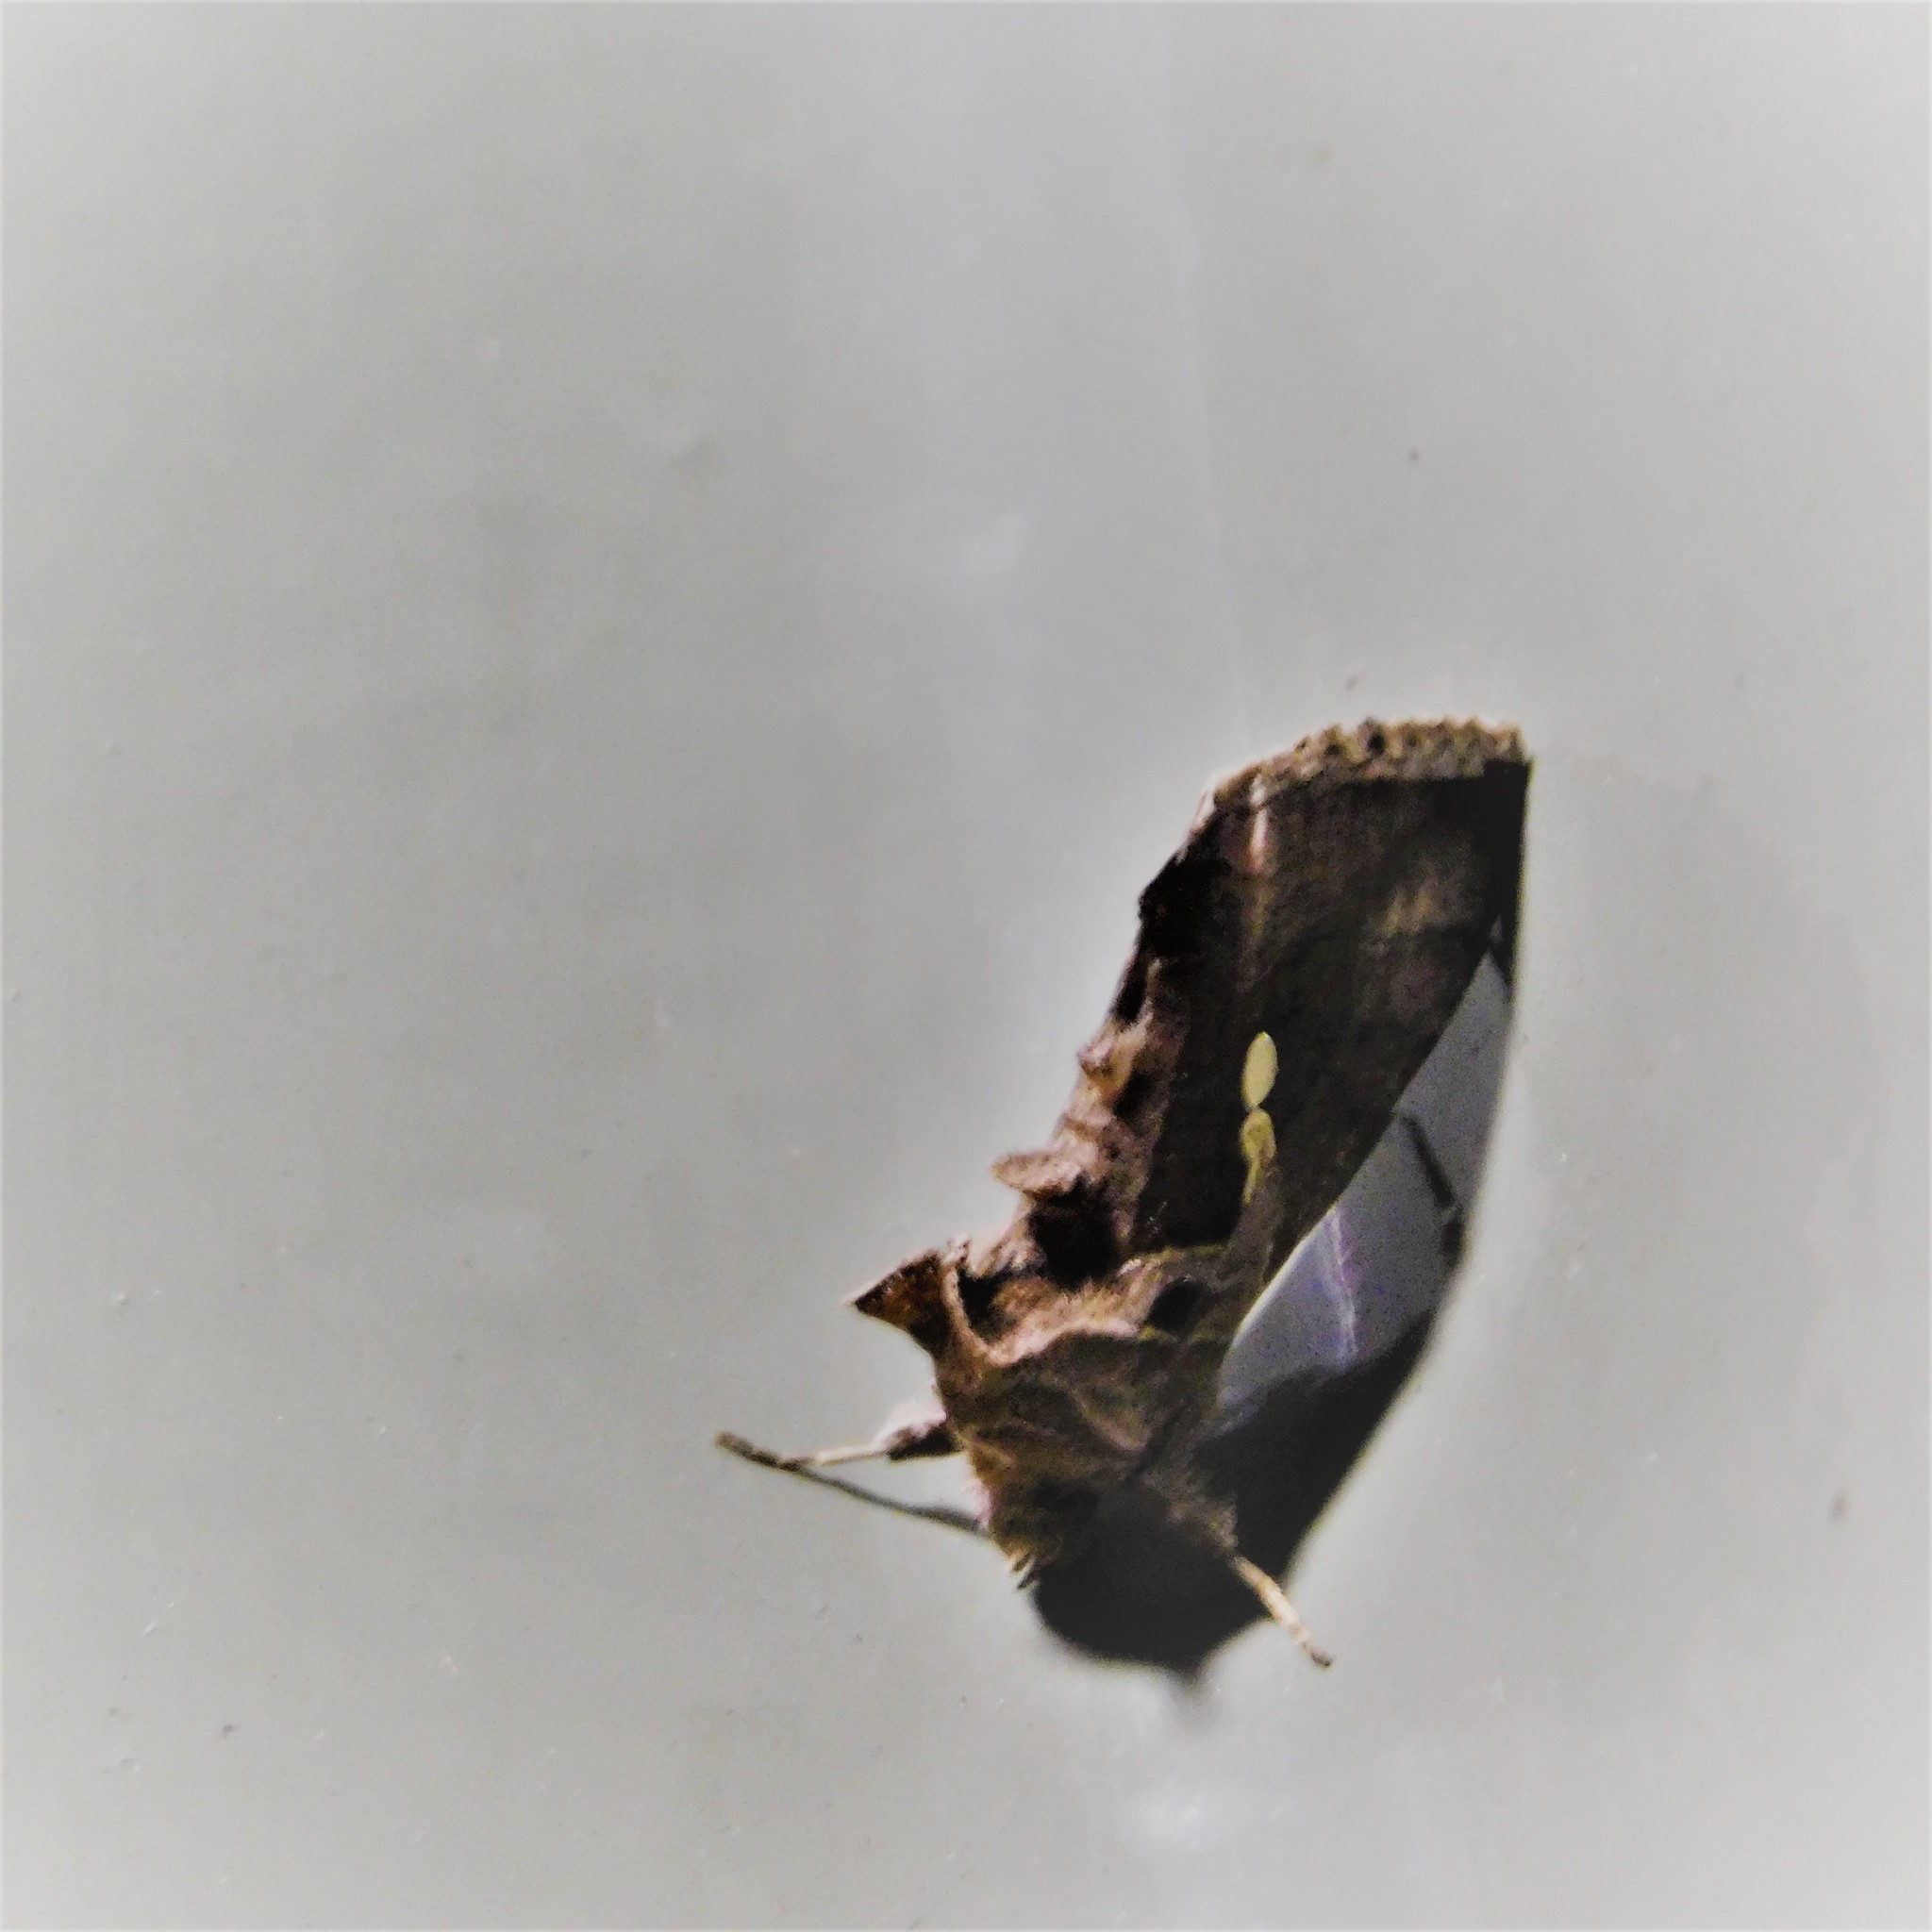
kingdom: Animalia
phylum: Arthropoda
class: Insecta
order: Lepidoptera
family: Noctuidae
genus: Chrysodeixis
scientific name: Chrysodeixis eriosoma
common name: Green garden looper
